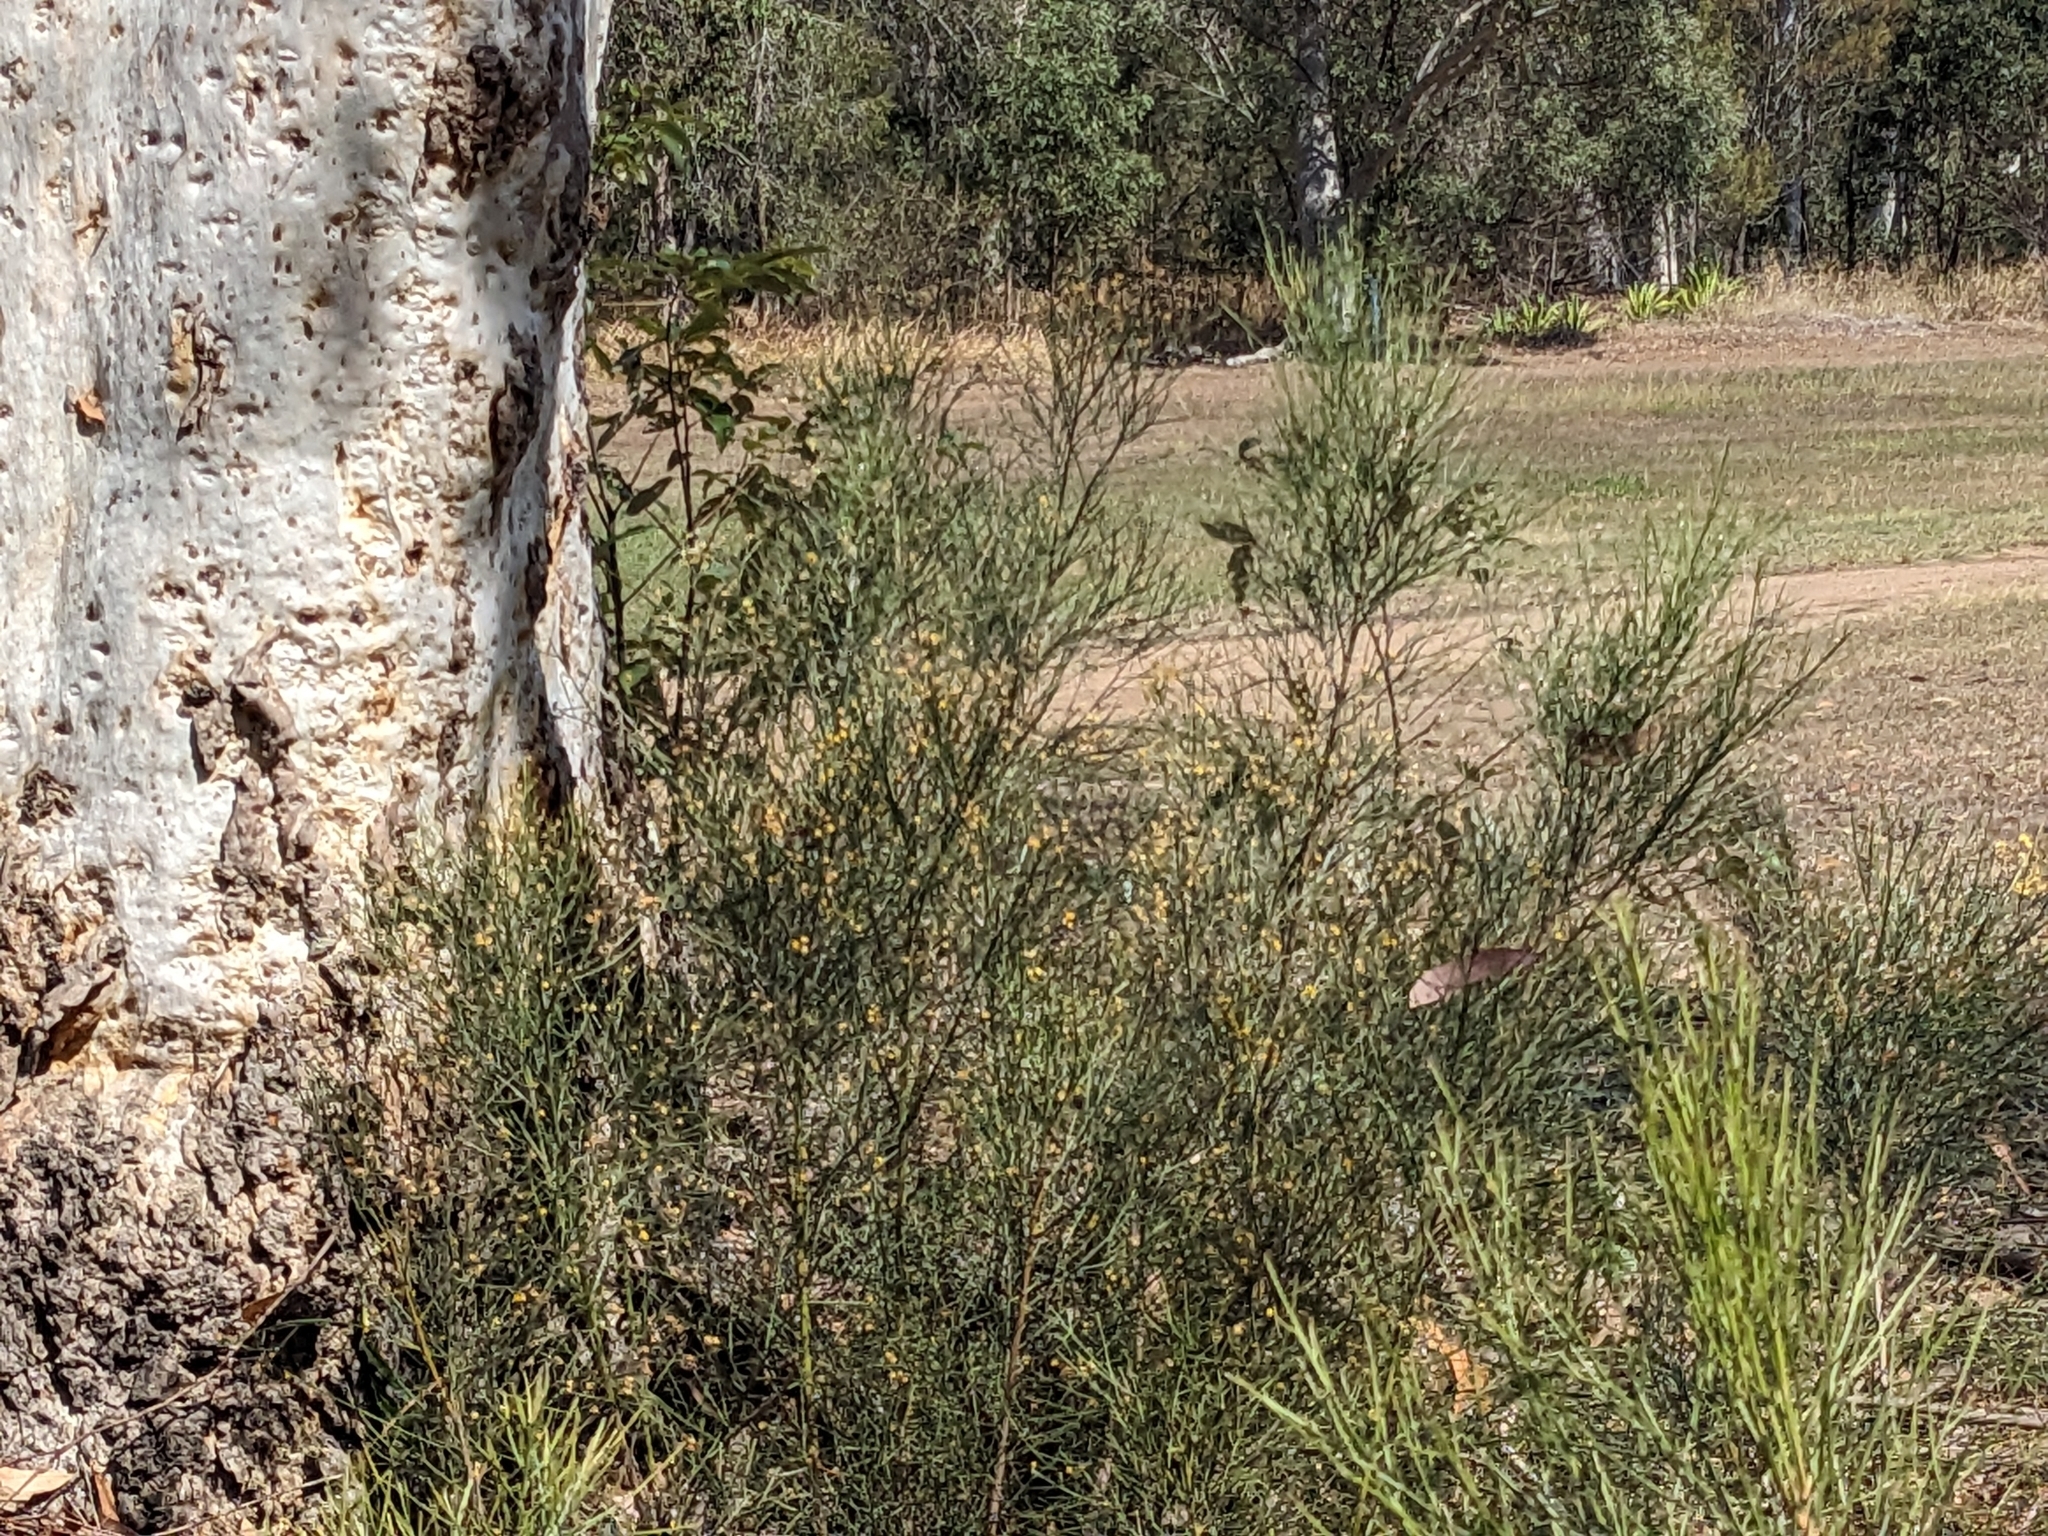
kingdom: Plantae
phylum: Tracheophyta
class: Magnoliopsida
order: Fabales
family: Fabaceae
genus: Jacksonia
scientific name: Jacksonia scoparia
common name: Dogwood
